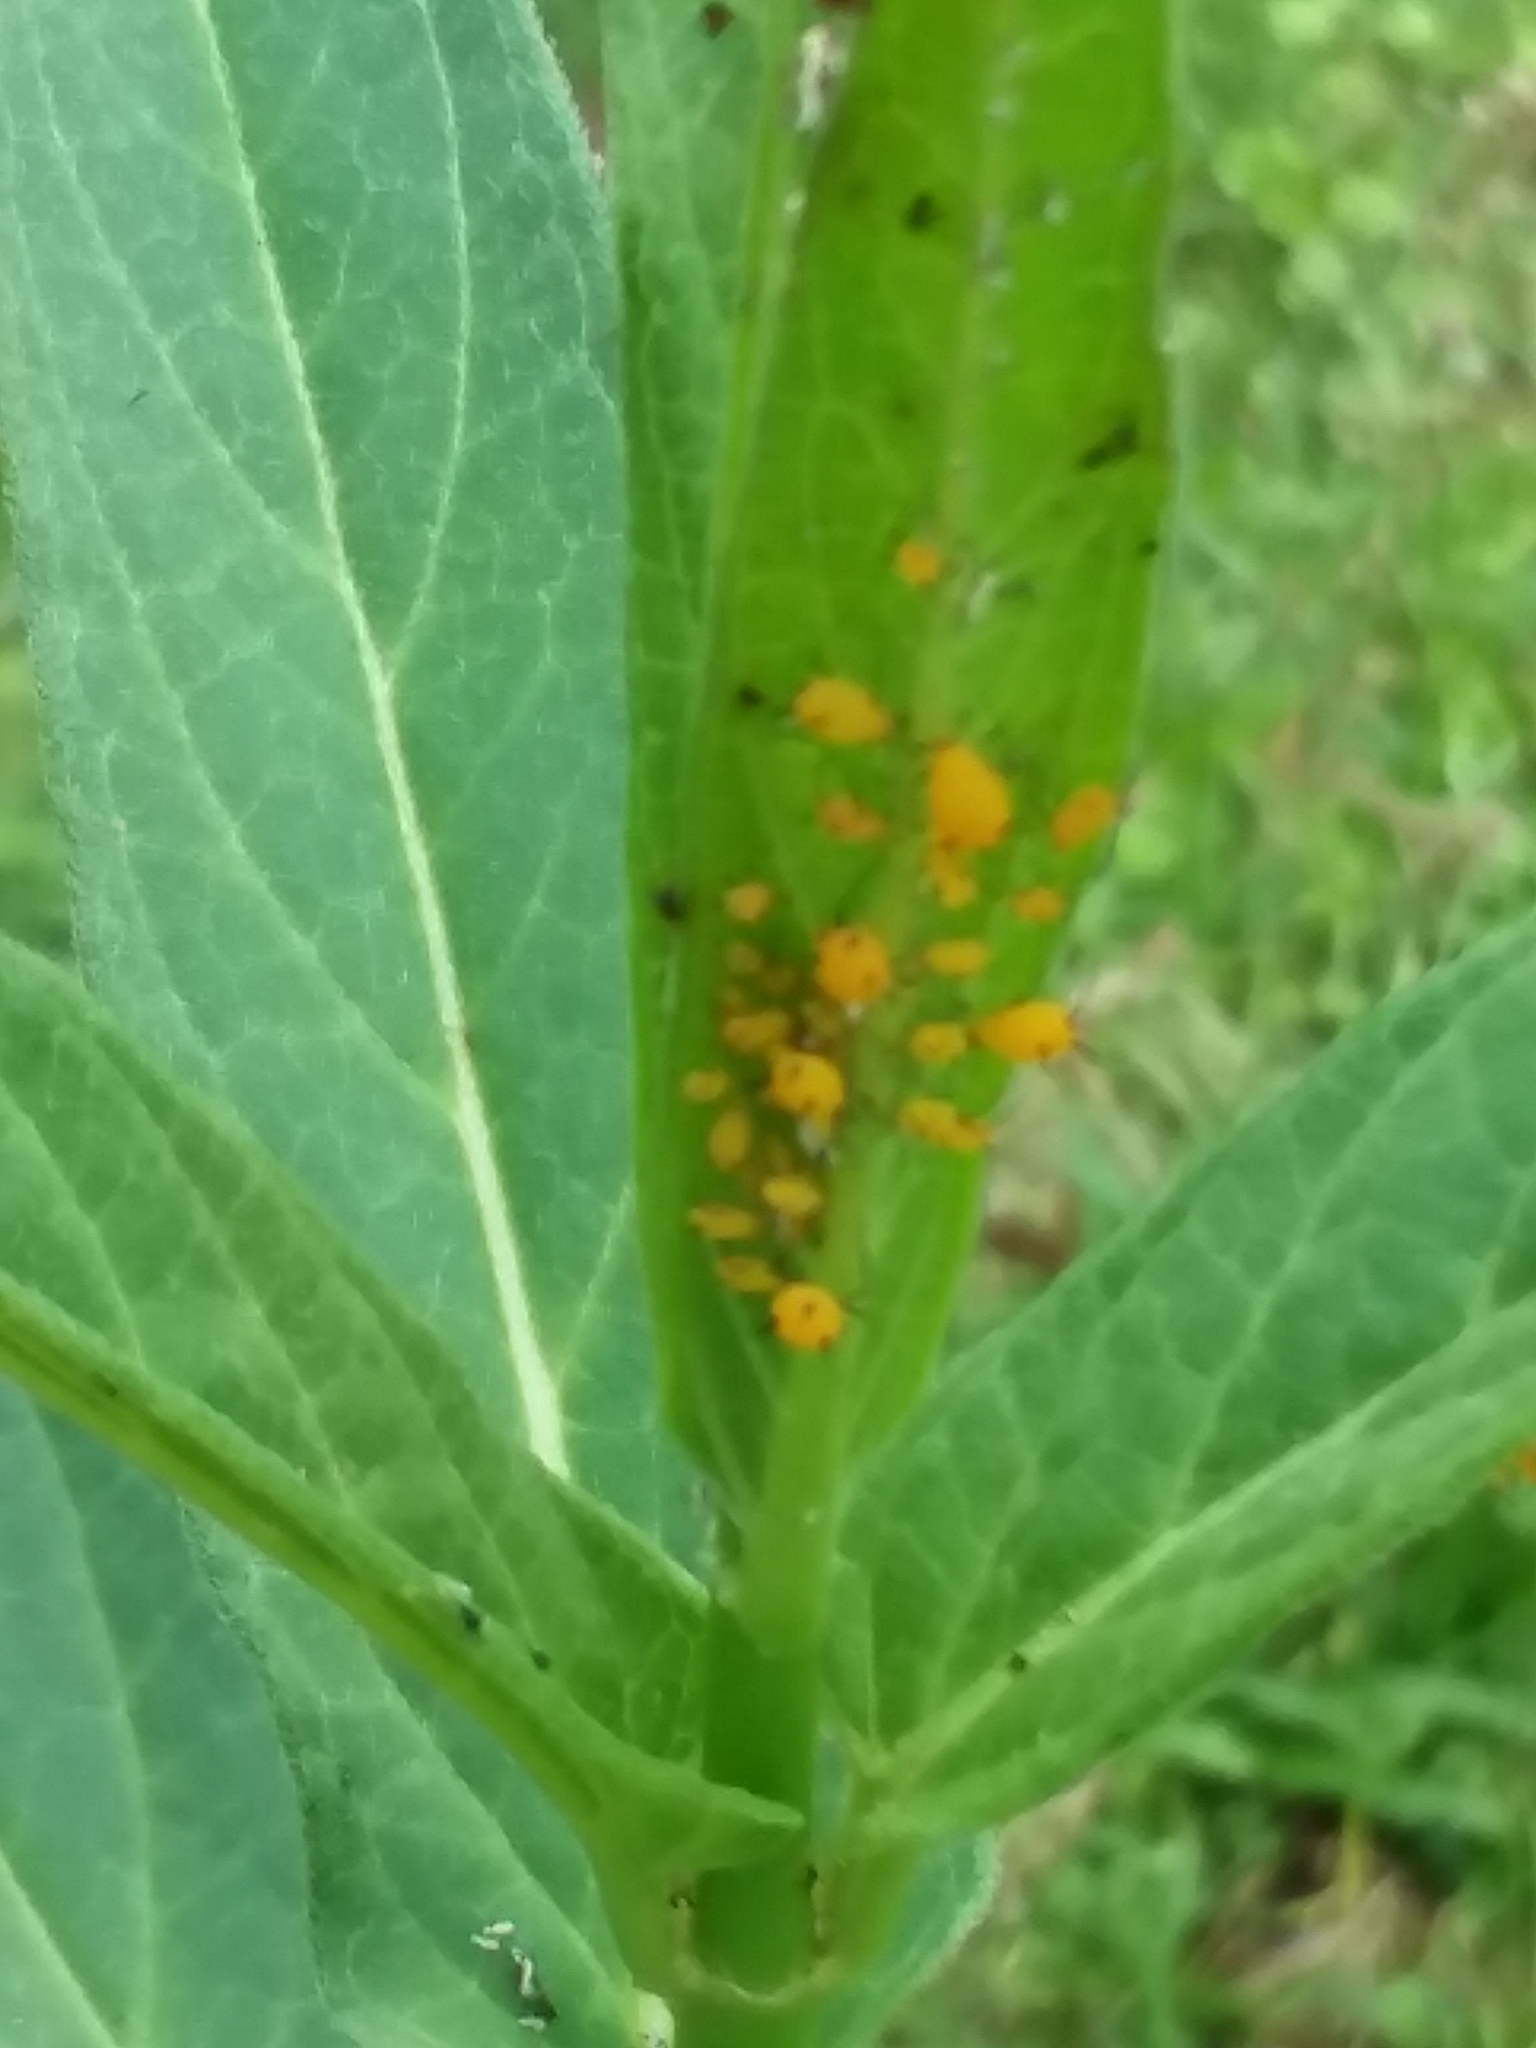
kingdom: Animalia
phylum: Arthropoda
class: Insecta
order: Hemiptera
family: Aphididae
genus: Aphis
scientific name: Aphis nerii
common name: Oleander aphid
